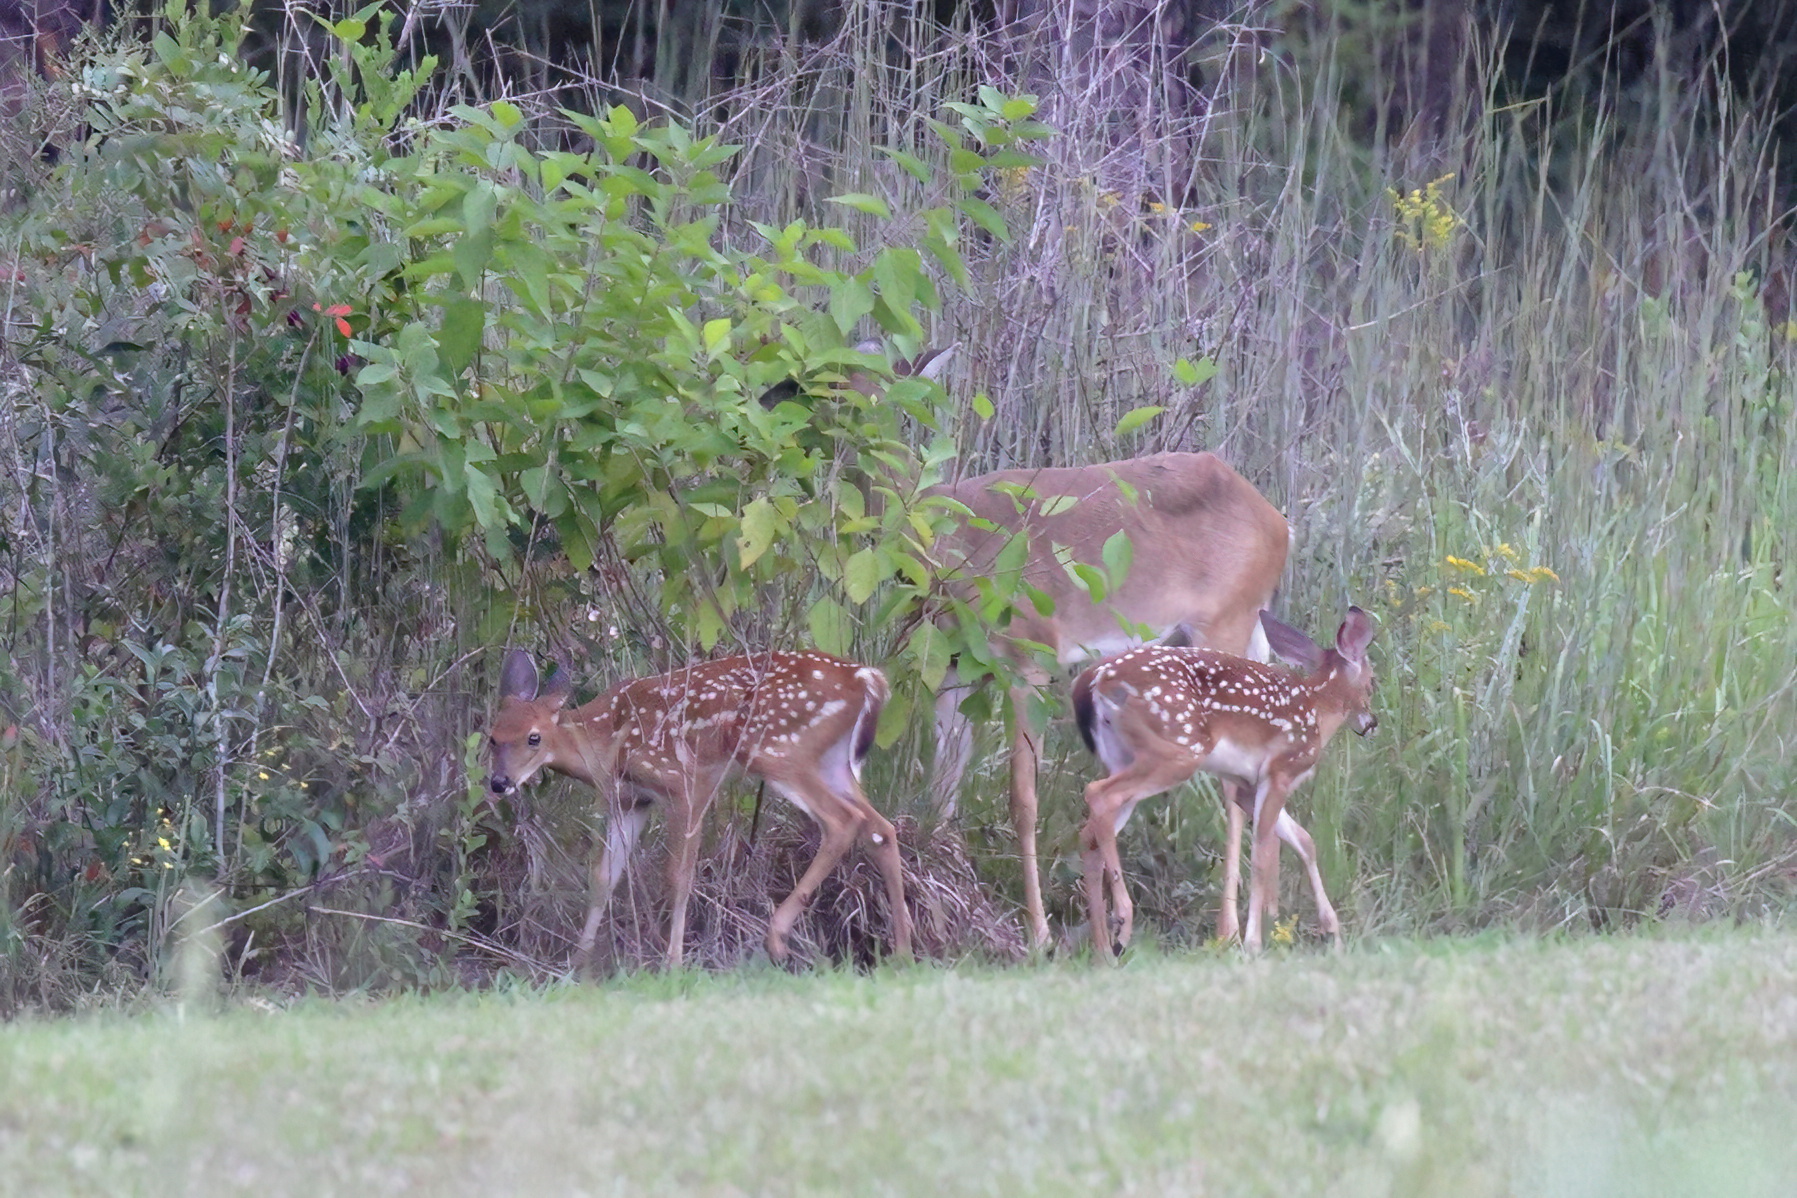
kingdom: Animalia
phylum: Chordata
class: Mammalia
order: Artiodactyla
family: Cervidae
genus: Odocoileus
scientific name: Odocoileus virginianus
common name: White-tailed deer
